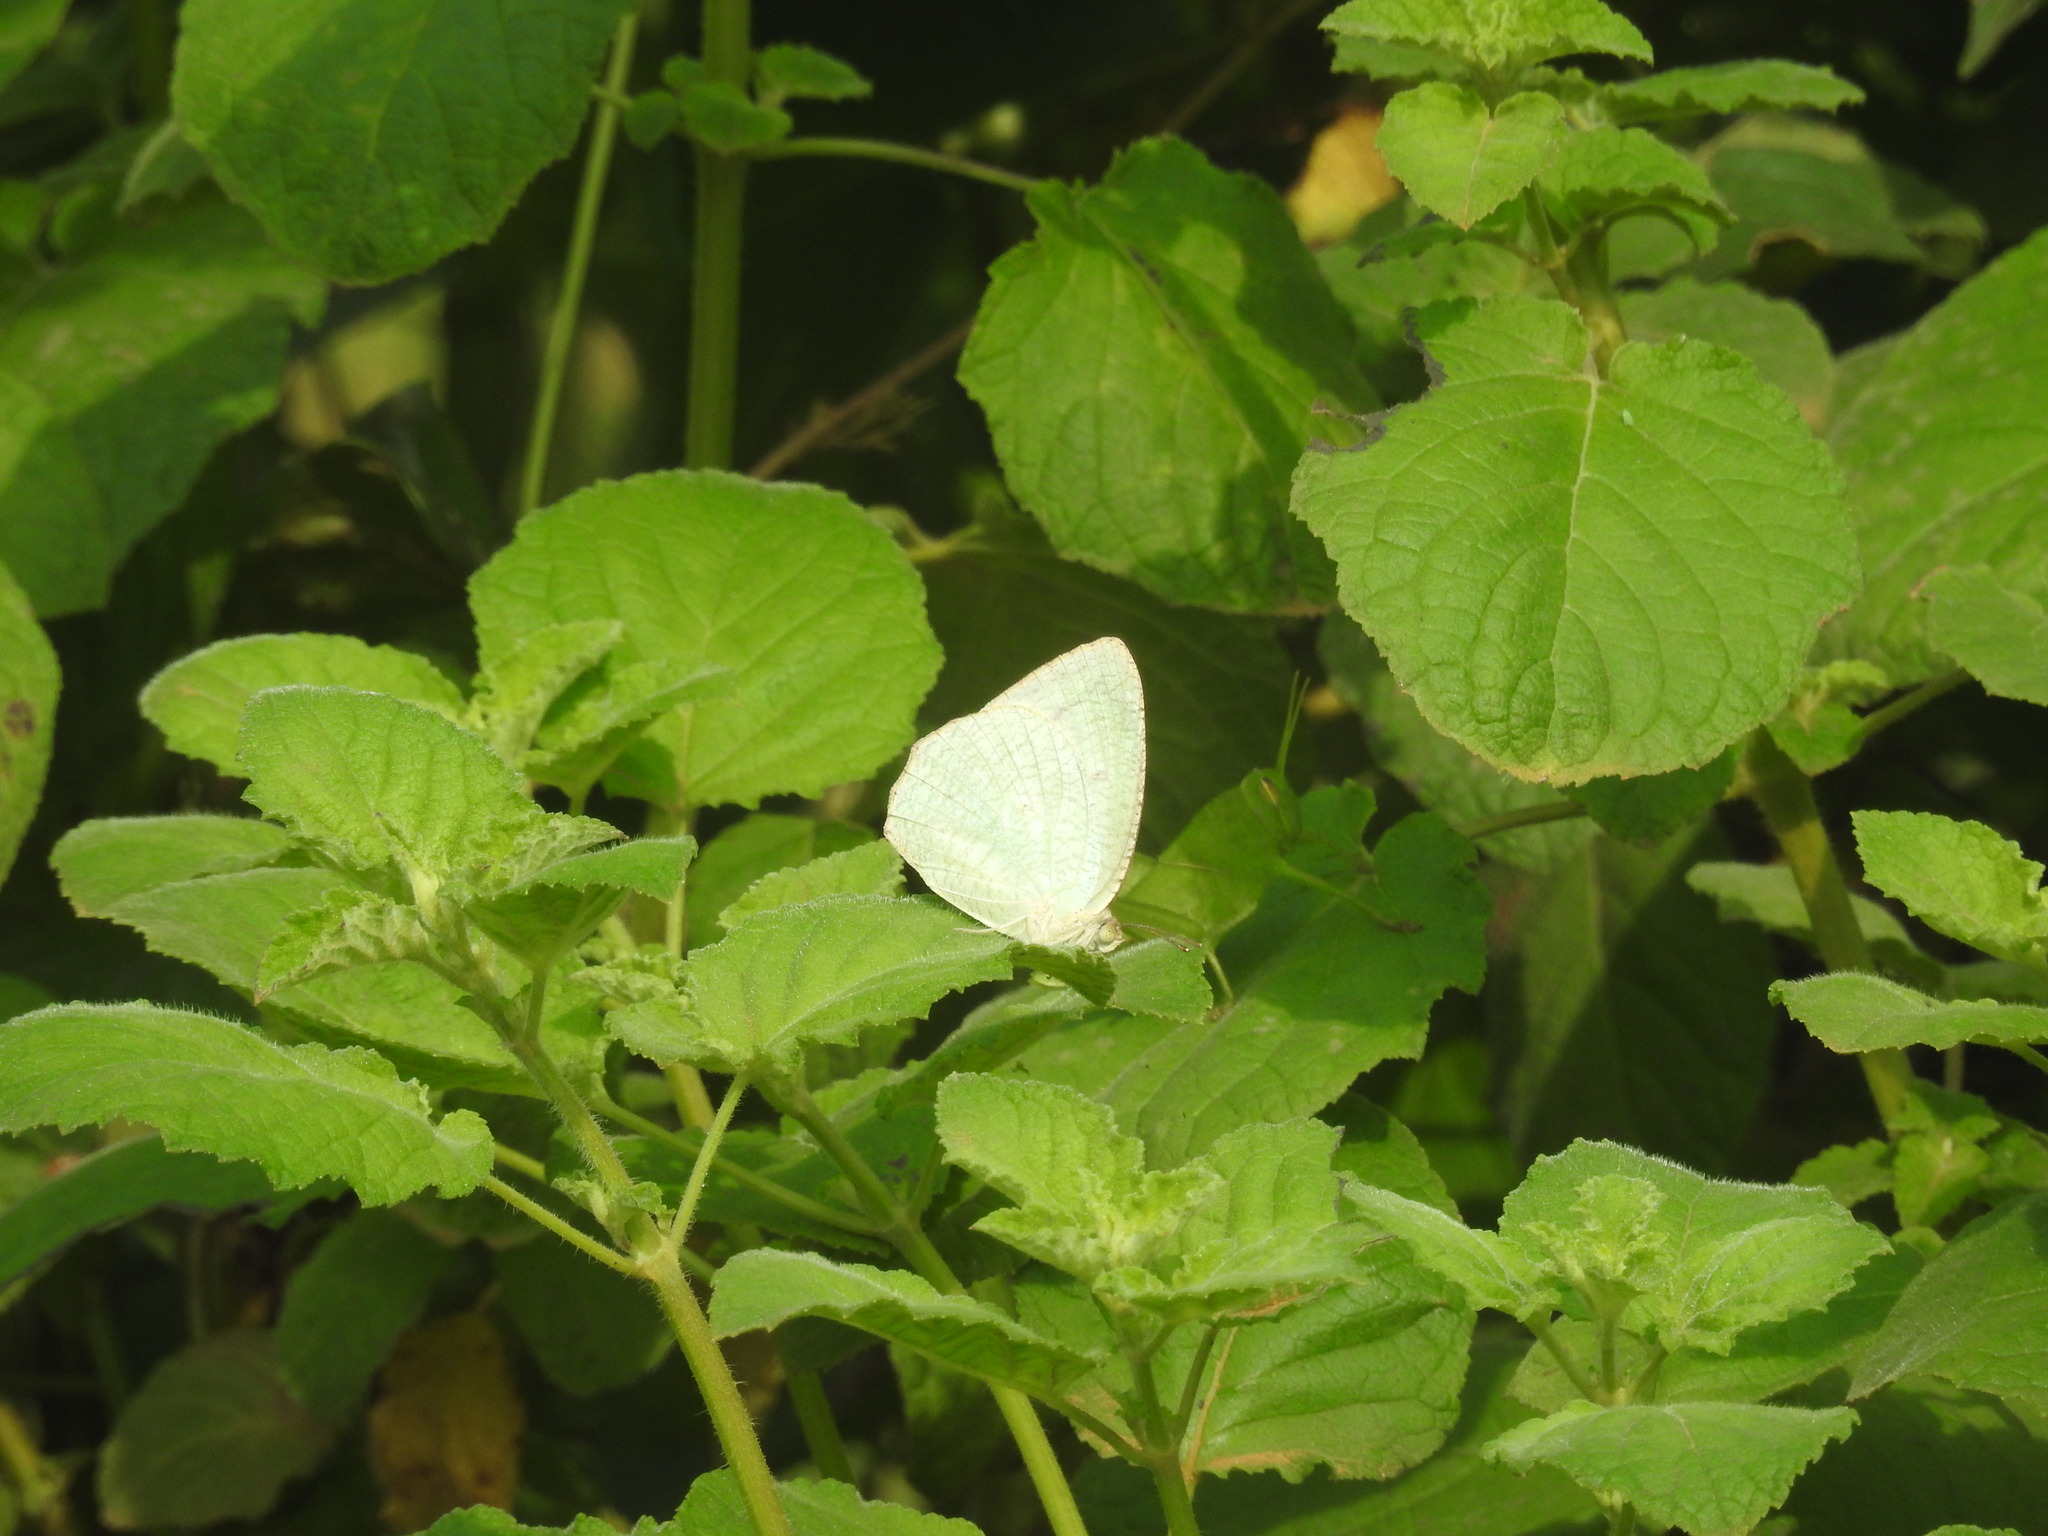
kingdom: Animalia
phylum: Arthropoda
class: Insecta
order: Lepidoptera
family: Pieridae
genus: Catopsilia
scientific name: Catopsilia pyranthe
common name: Mottled emigrant
